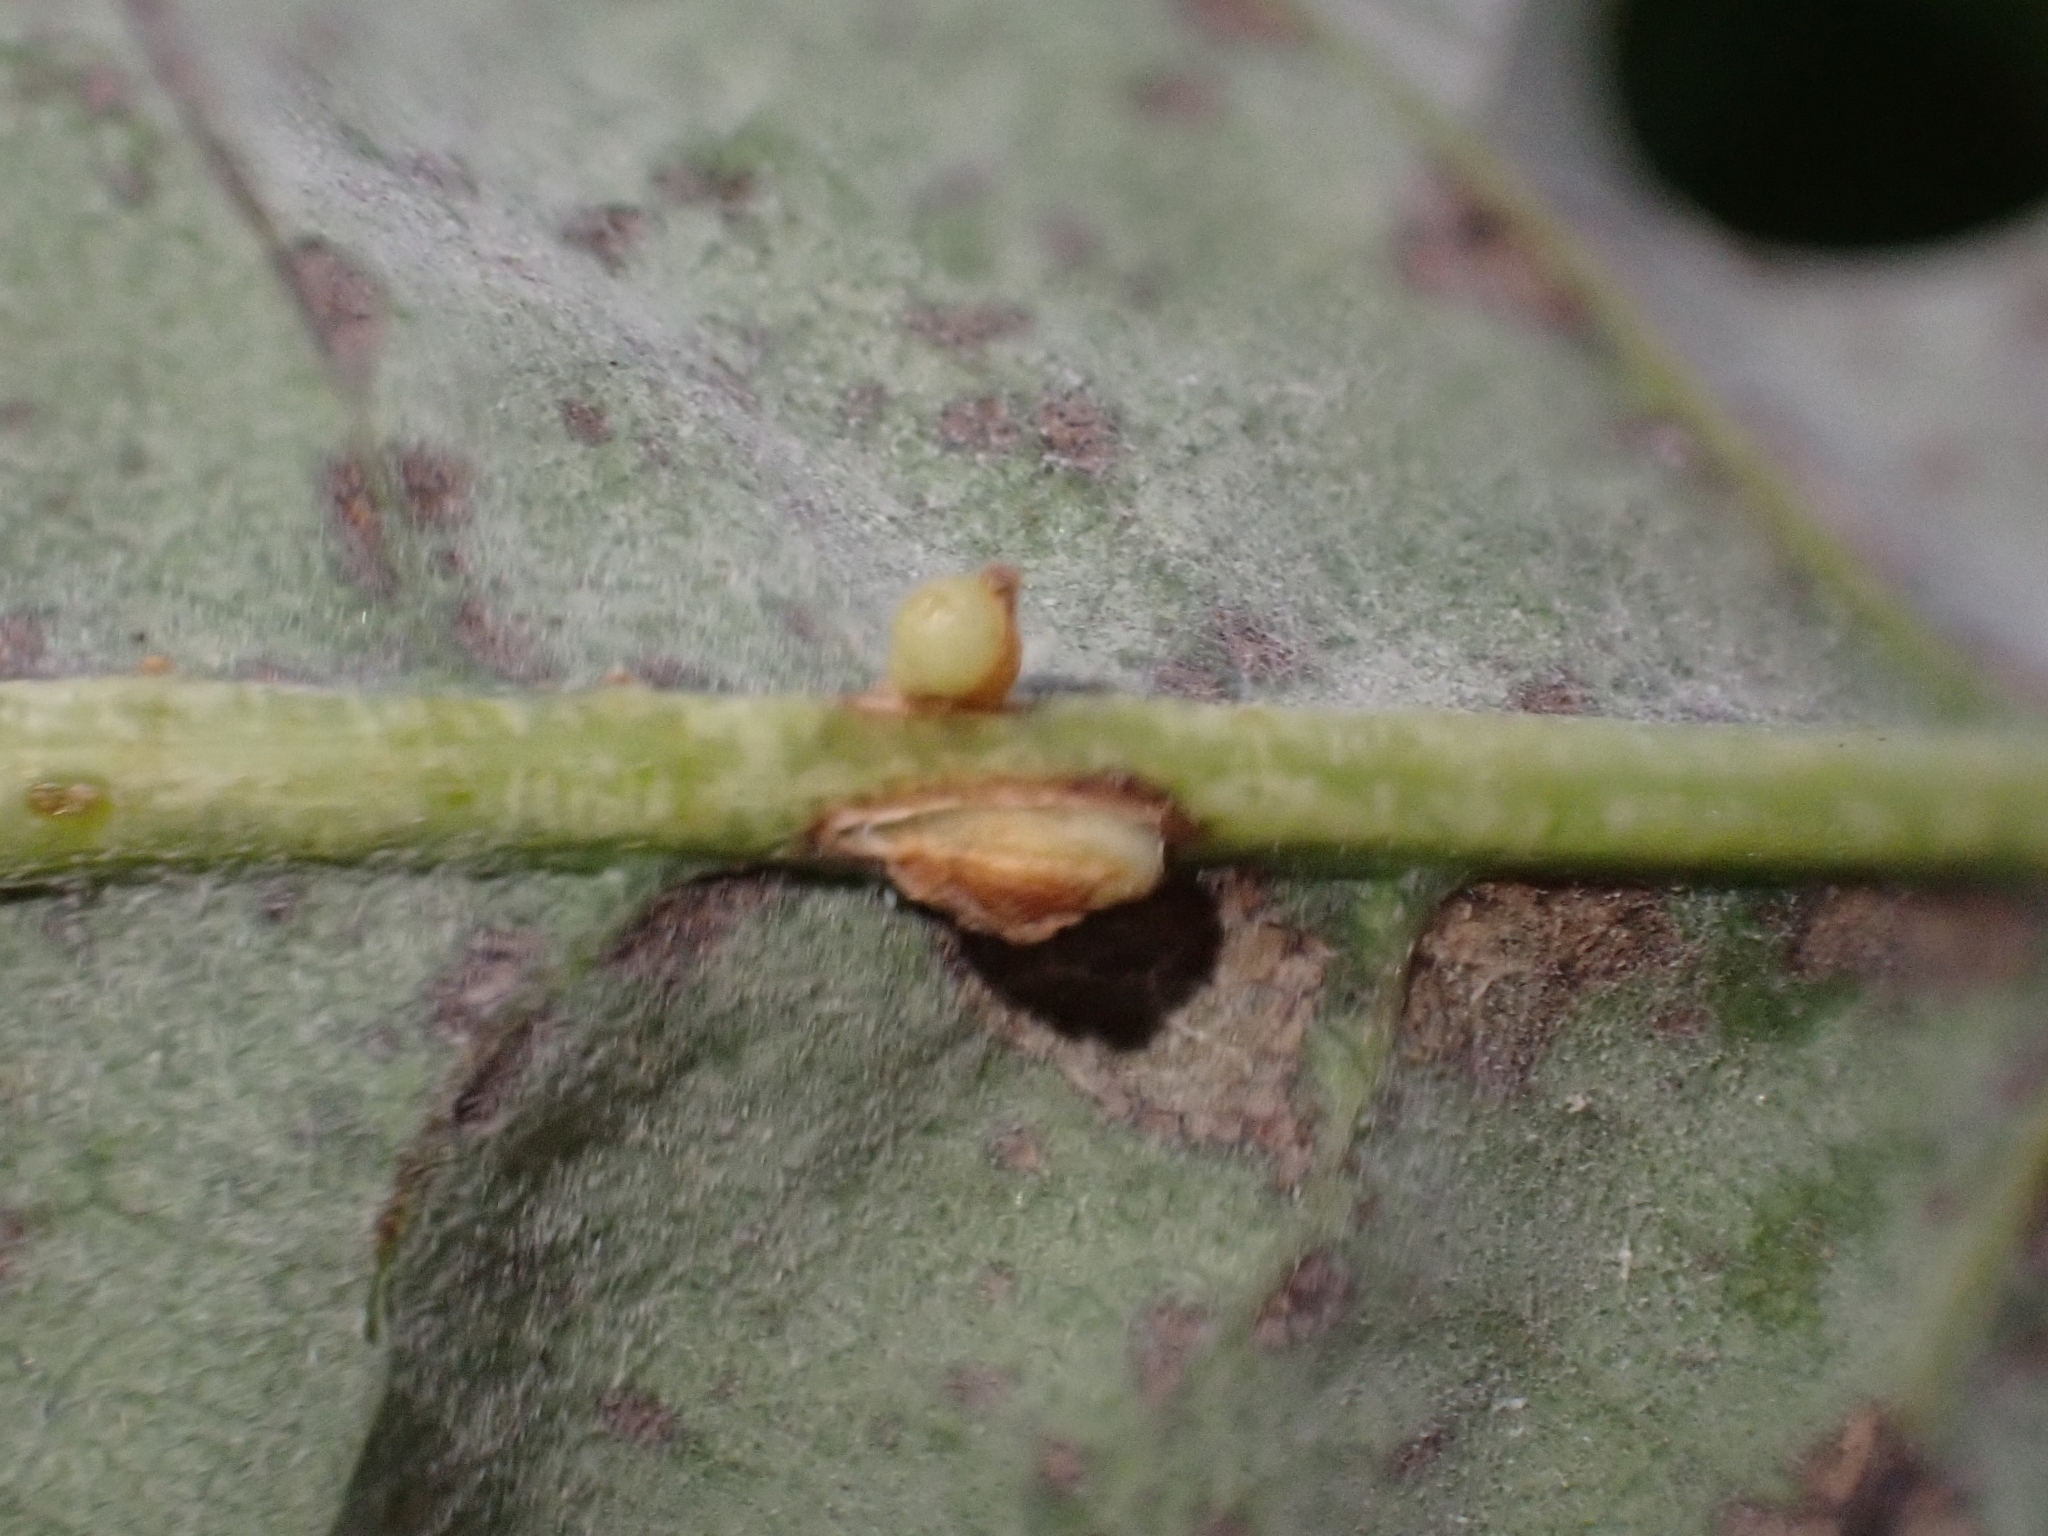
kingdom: Animalia
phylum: Arthropoda
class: Insecta
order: Hymenoptera
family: Cynipidae
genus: Neuroterus
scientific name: Neuroterus anthracinus
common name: Oyster gall
